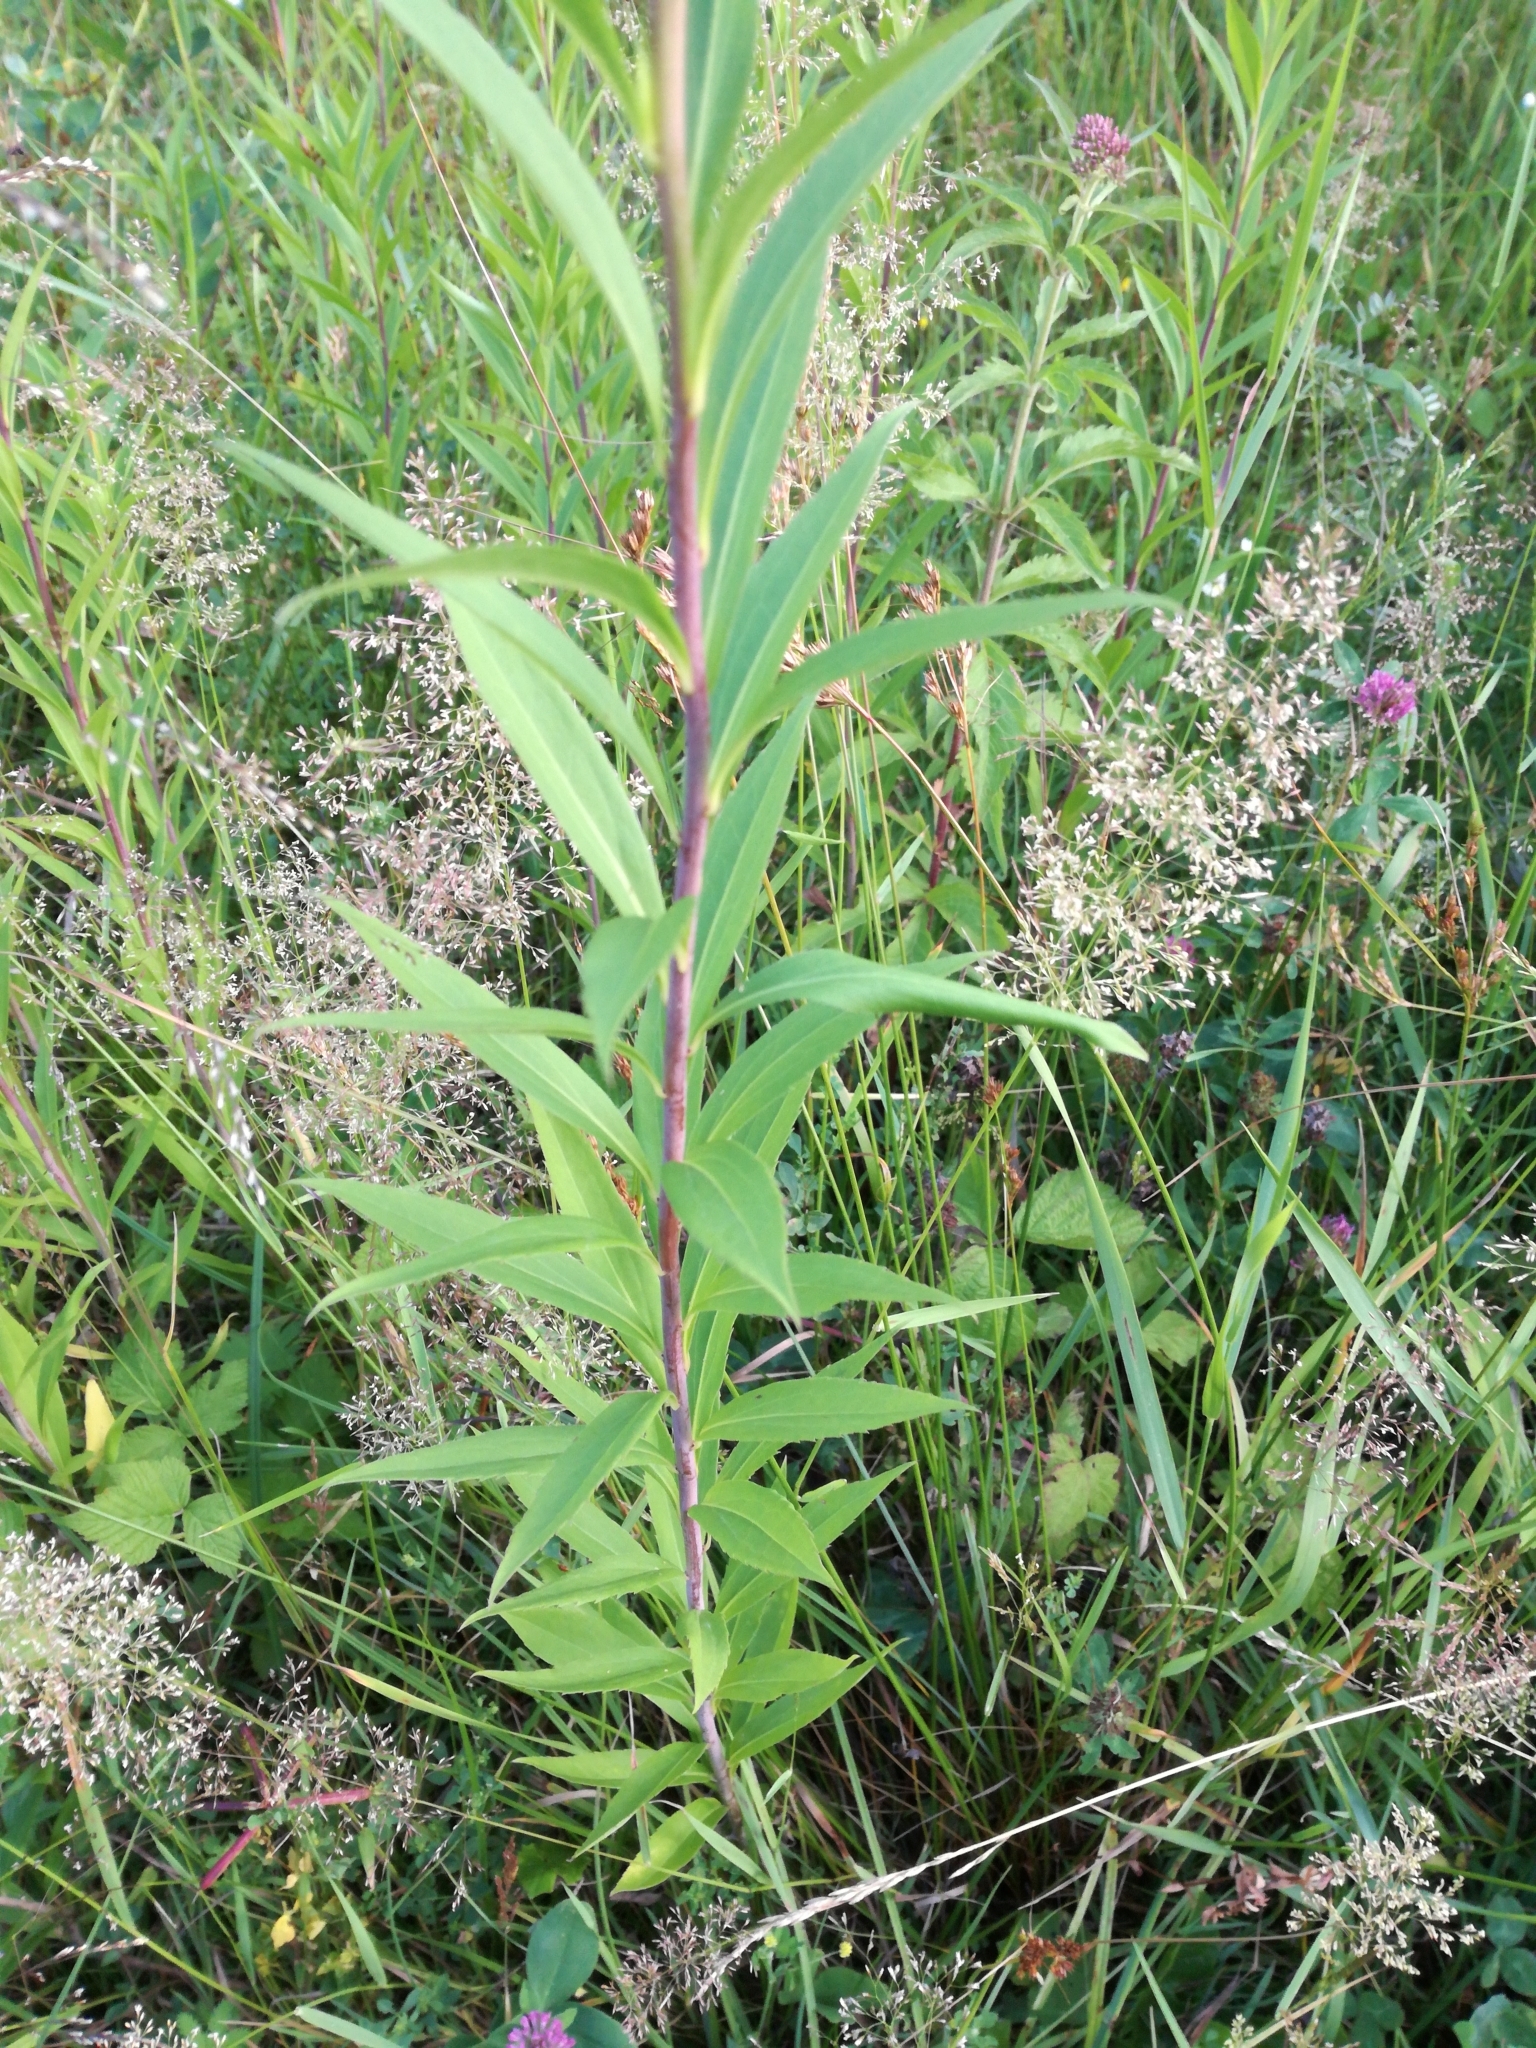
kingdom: Plantae
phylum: Tracheophyta
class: Magnoliopsida
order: Asterales
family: Asteraceae
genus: Solidago
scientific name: Solidago gigantea
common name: Giant goldenrod
